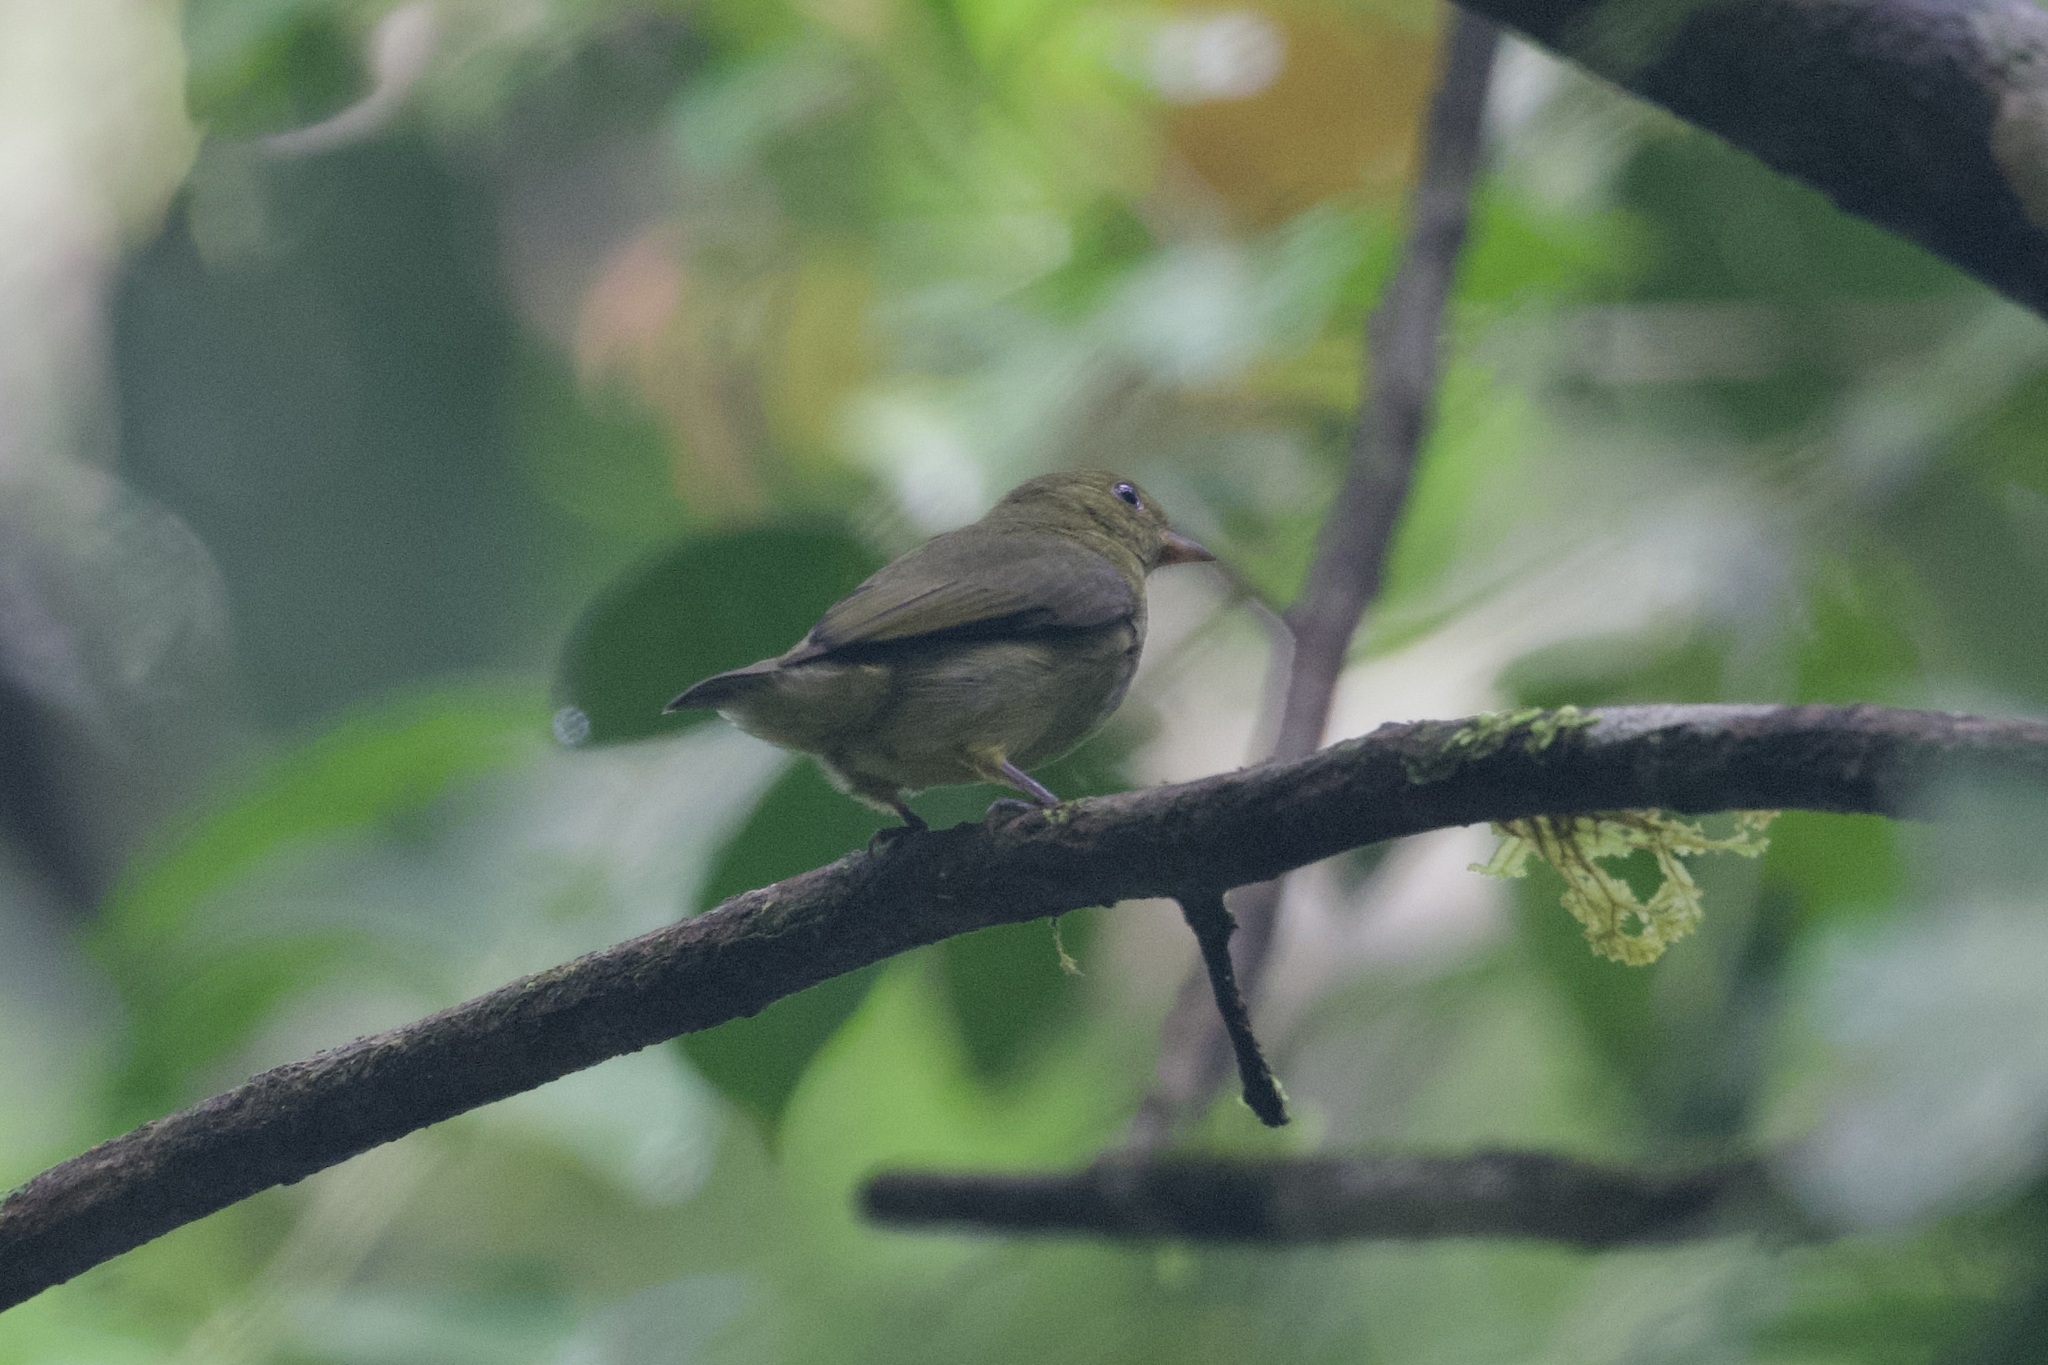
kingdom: Animalia
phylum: Chordata
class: Aves
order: Passeriformes
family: Pipridae
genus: Pipra
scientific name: Pipra mentalis
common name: Red-capped manakin
